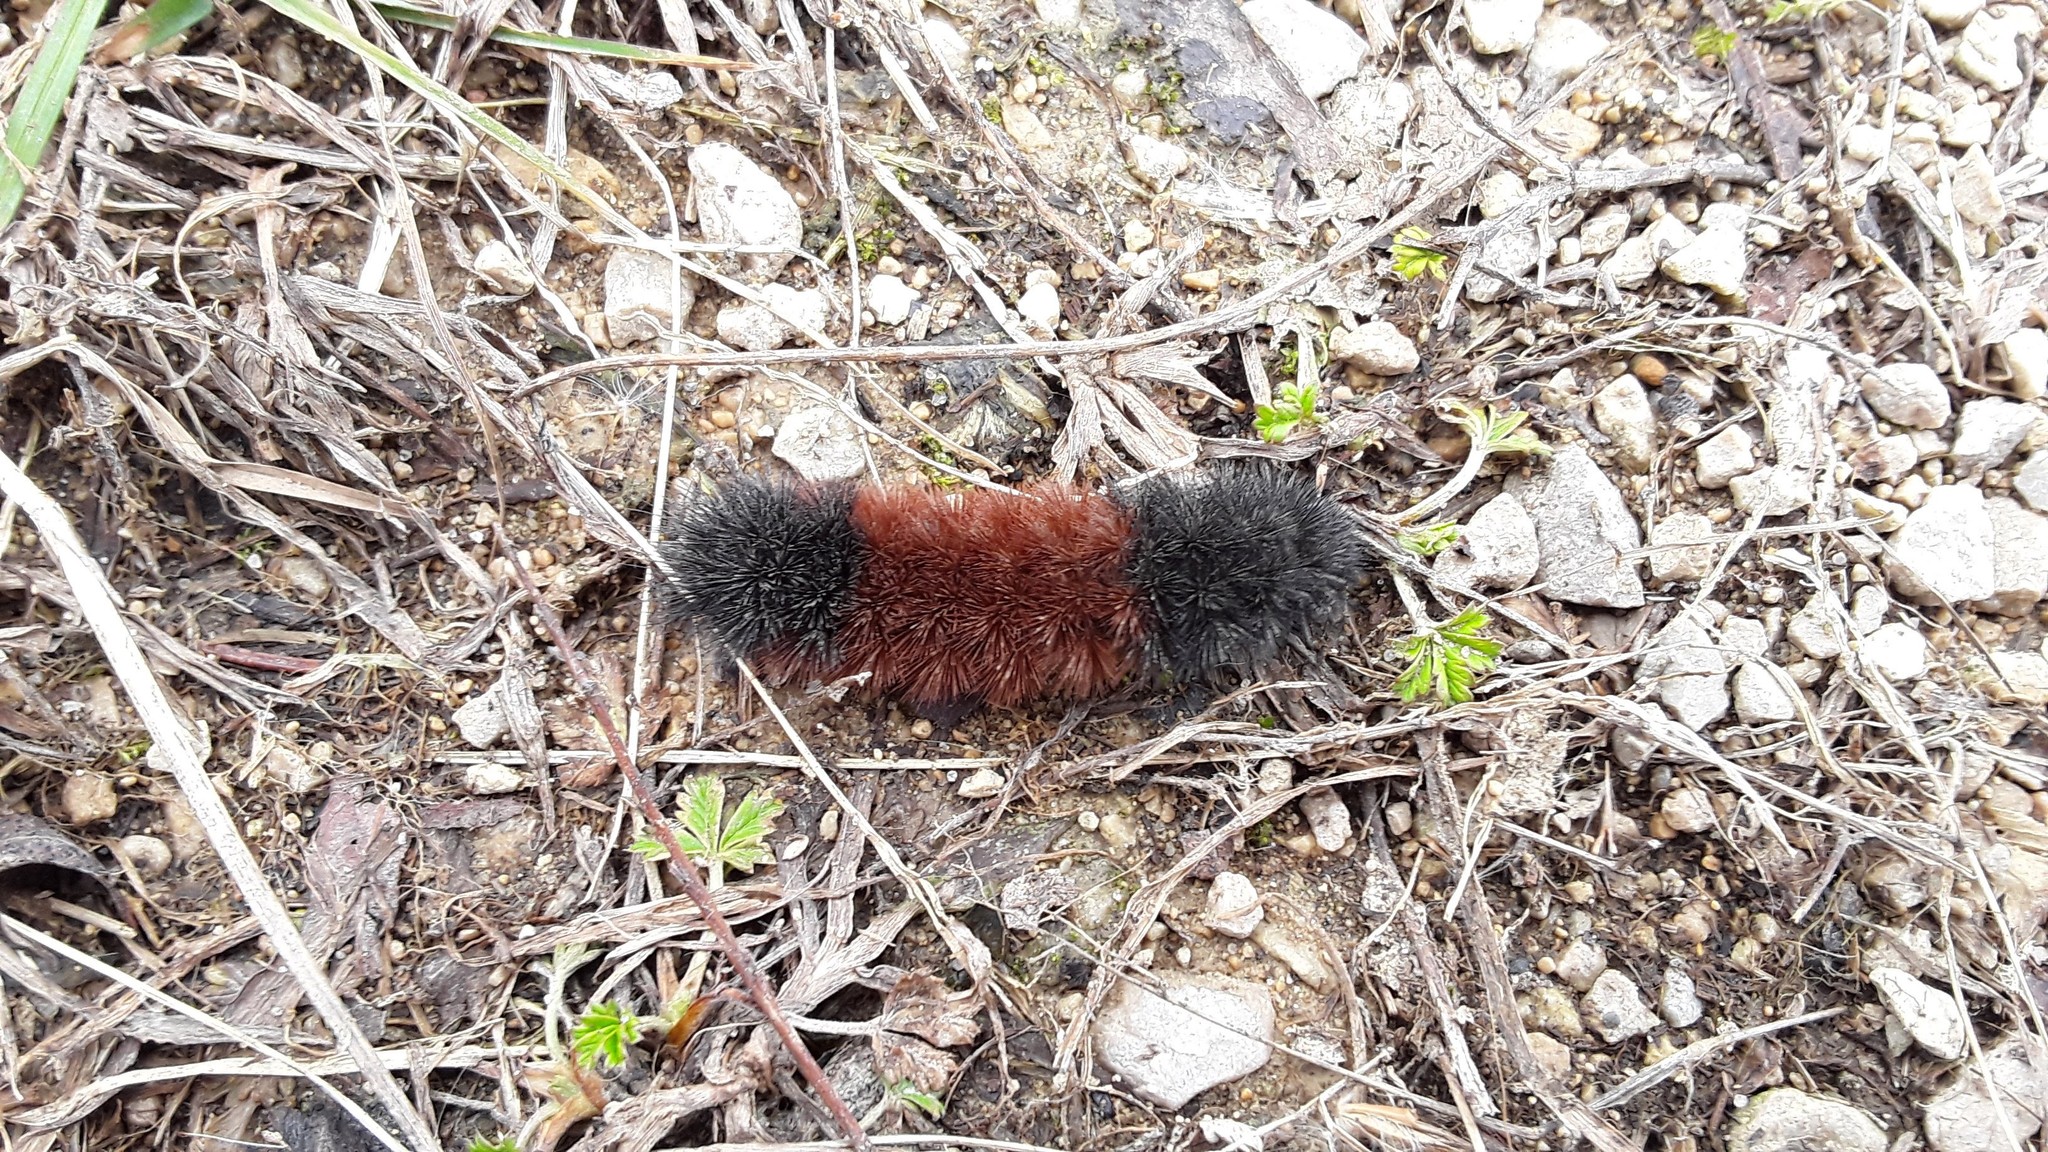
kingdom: Animalia
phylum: Arthropoda
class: Insecta
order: Lepidoptera
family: Erebidae
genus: Pyrrharctia
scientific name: Pyrrharctia isabella
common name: Isabella tiger moth
